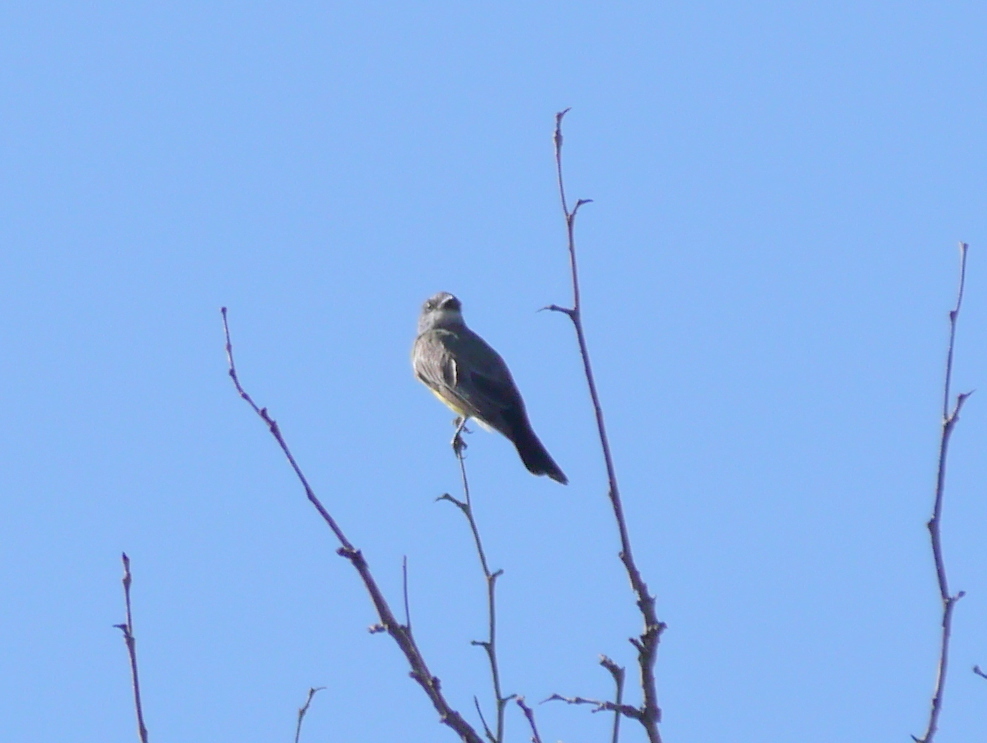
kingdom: Animalia
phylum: Chordata
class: Aves
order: Passeriformes
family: Tyrannidae
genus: Tyrannus
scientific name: Tyrannus vociferans
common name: Cassin's kingbird
